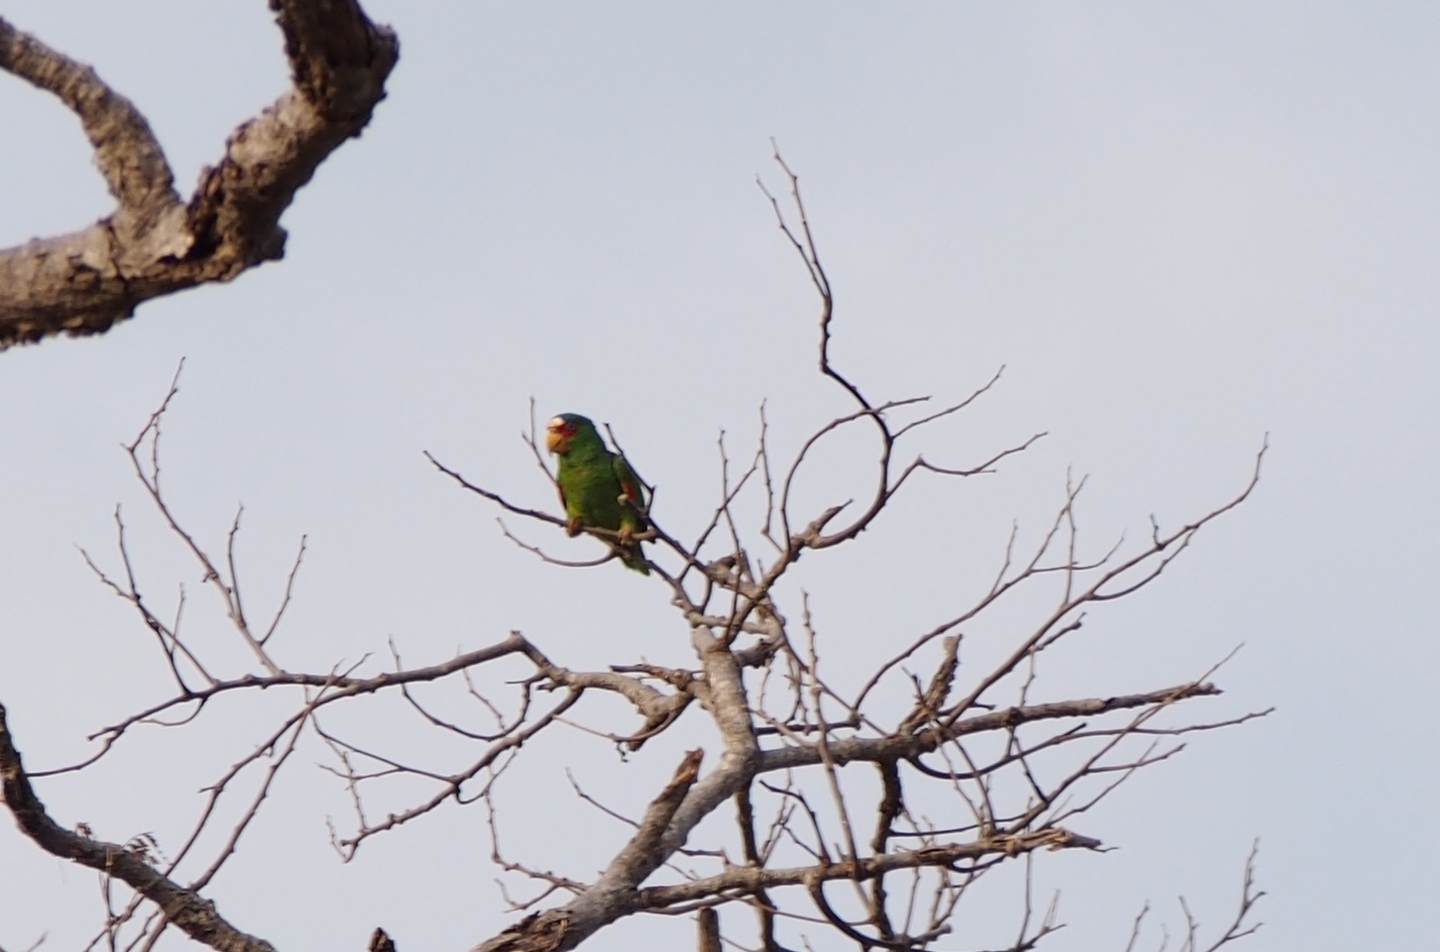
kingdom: Animalia
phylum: Chordata
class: Aves
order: Psittaciformes
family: Psittacidae
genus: Amazona
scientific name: Amazona albifrons
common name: White-fronted amazon
